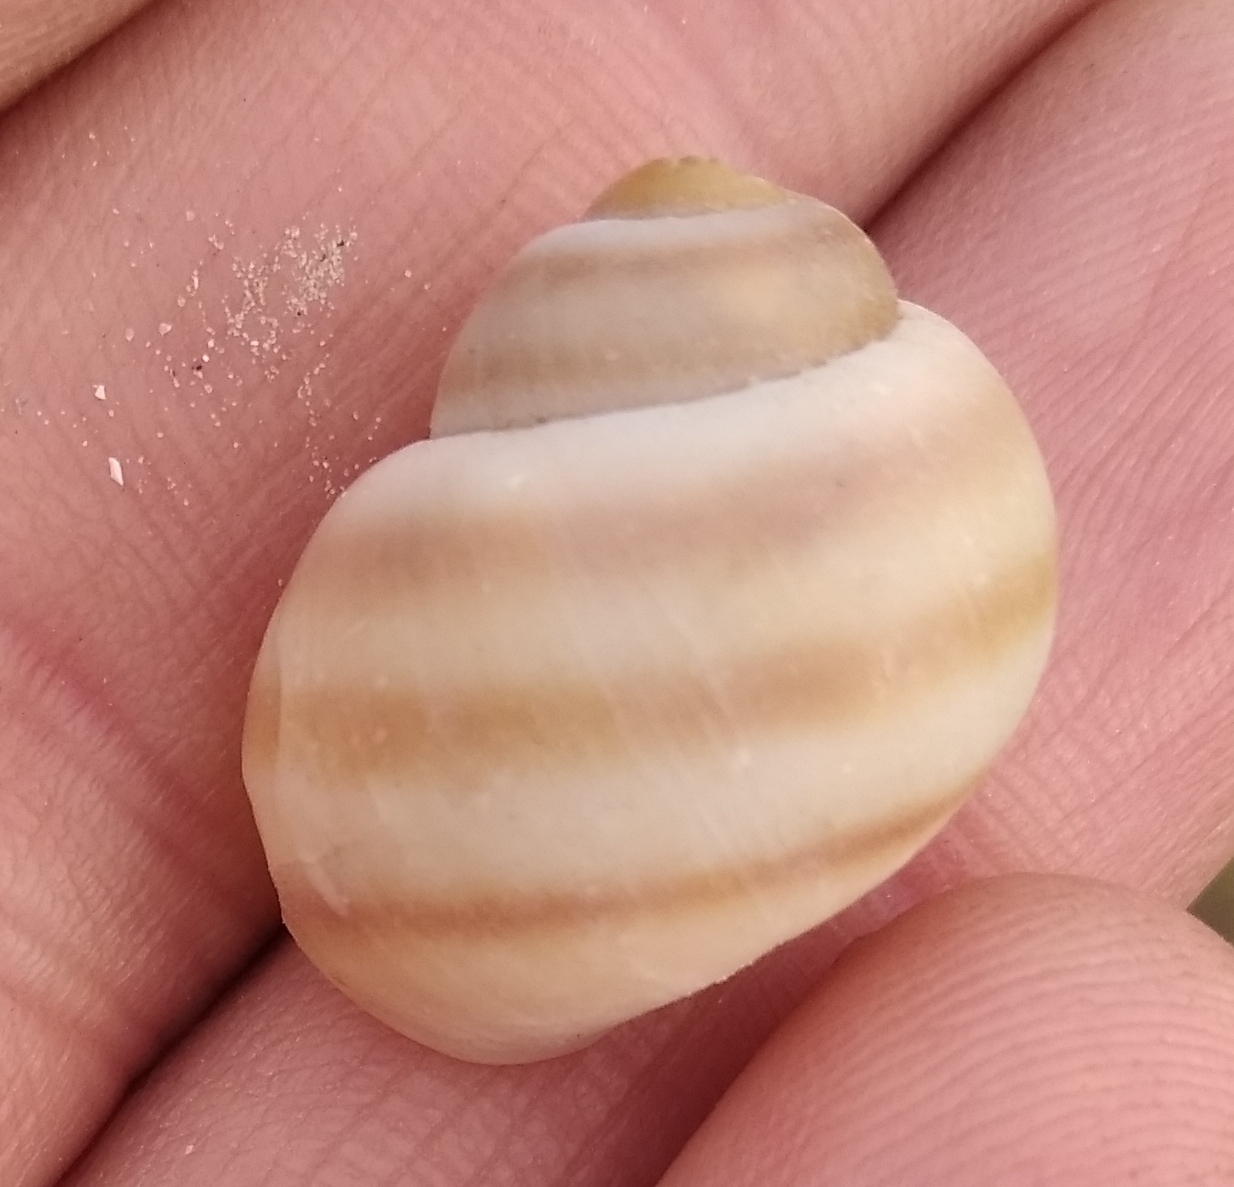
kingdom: Animalia
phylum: Mollusca
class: Gastropoda
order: Architaenioglossa
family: Viviparidae
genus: Viviparus
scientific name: Viviparus viviparus
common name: River snail
